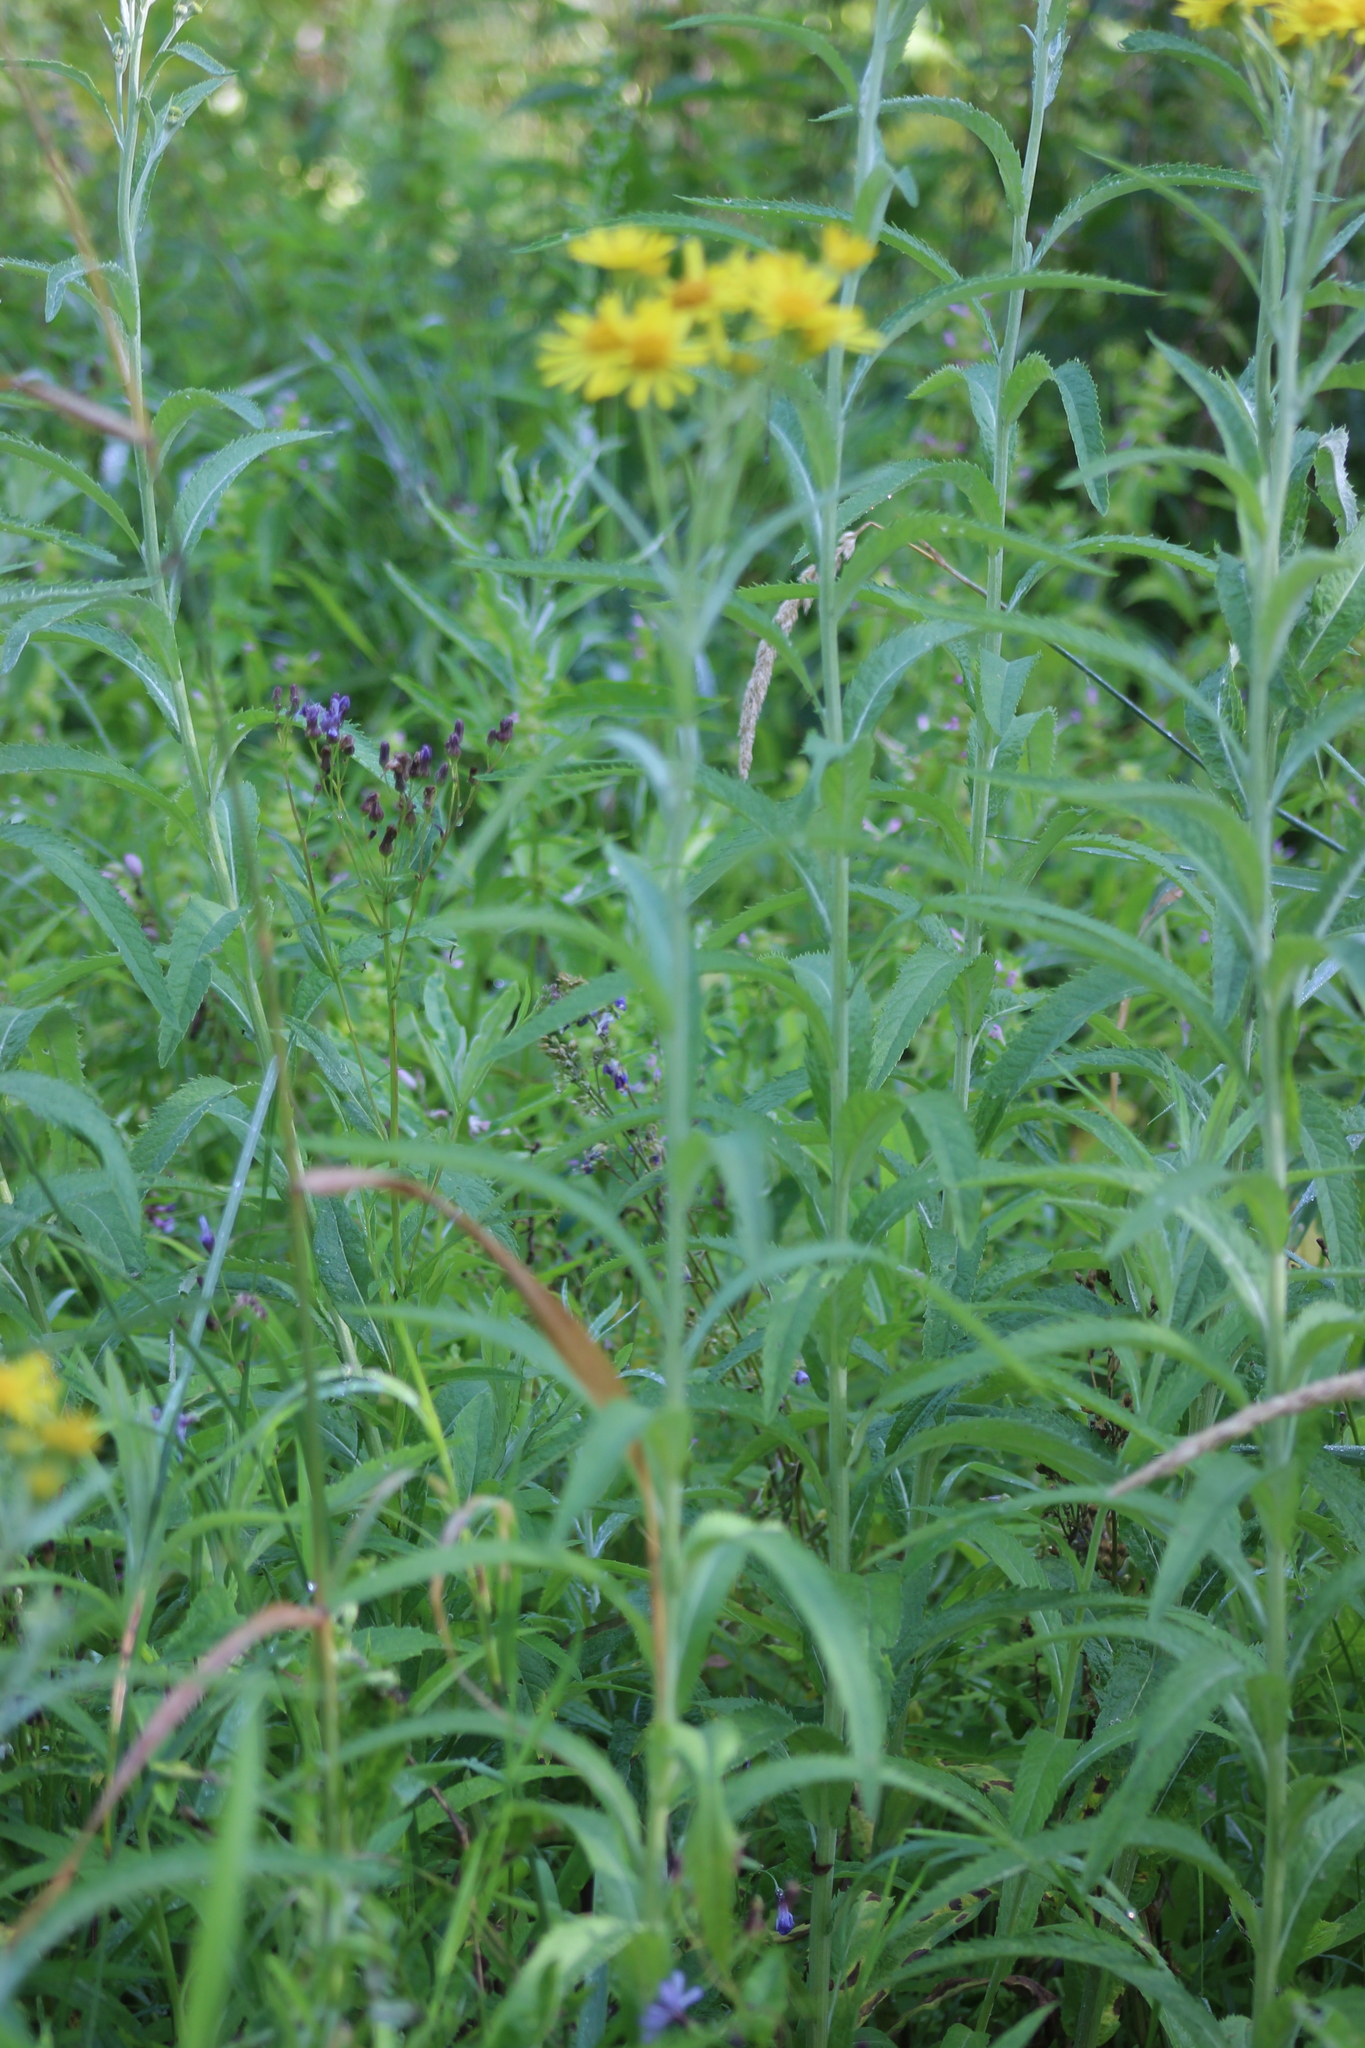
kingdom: Plantae
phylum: Tracheophyta
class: Magnoliopsida
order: Asterales
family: Asteraceae
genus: Jacobaea
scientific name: Jacobaea paludosa
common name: Fen ragwort
